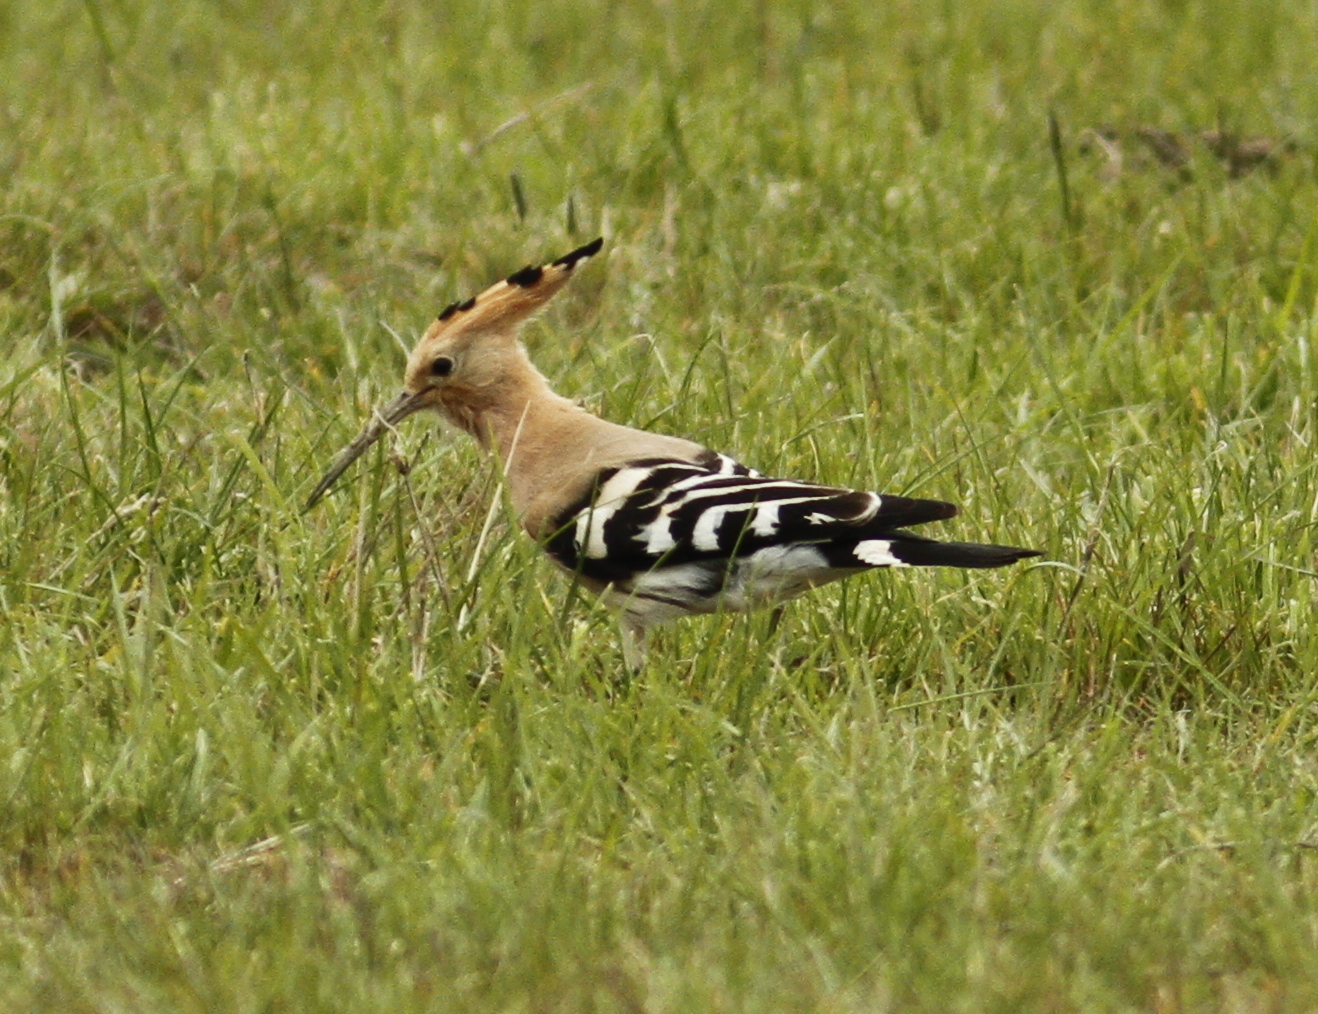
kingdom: Animalia
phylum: Chordata
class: Aves
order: Bucerotiformes
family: Upupidae
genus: Upupa
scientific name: Upupa epops
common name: Eurasian hoopoe
